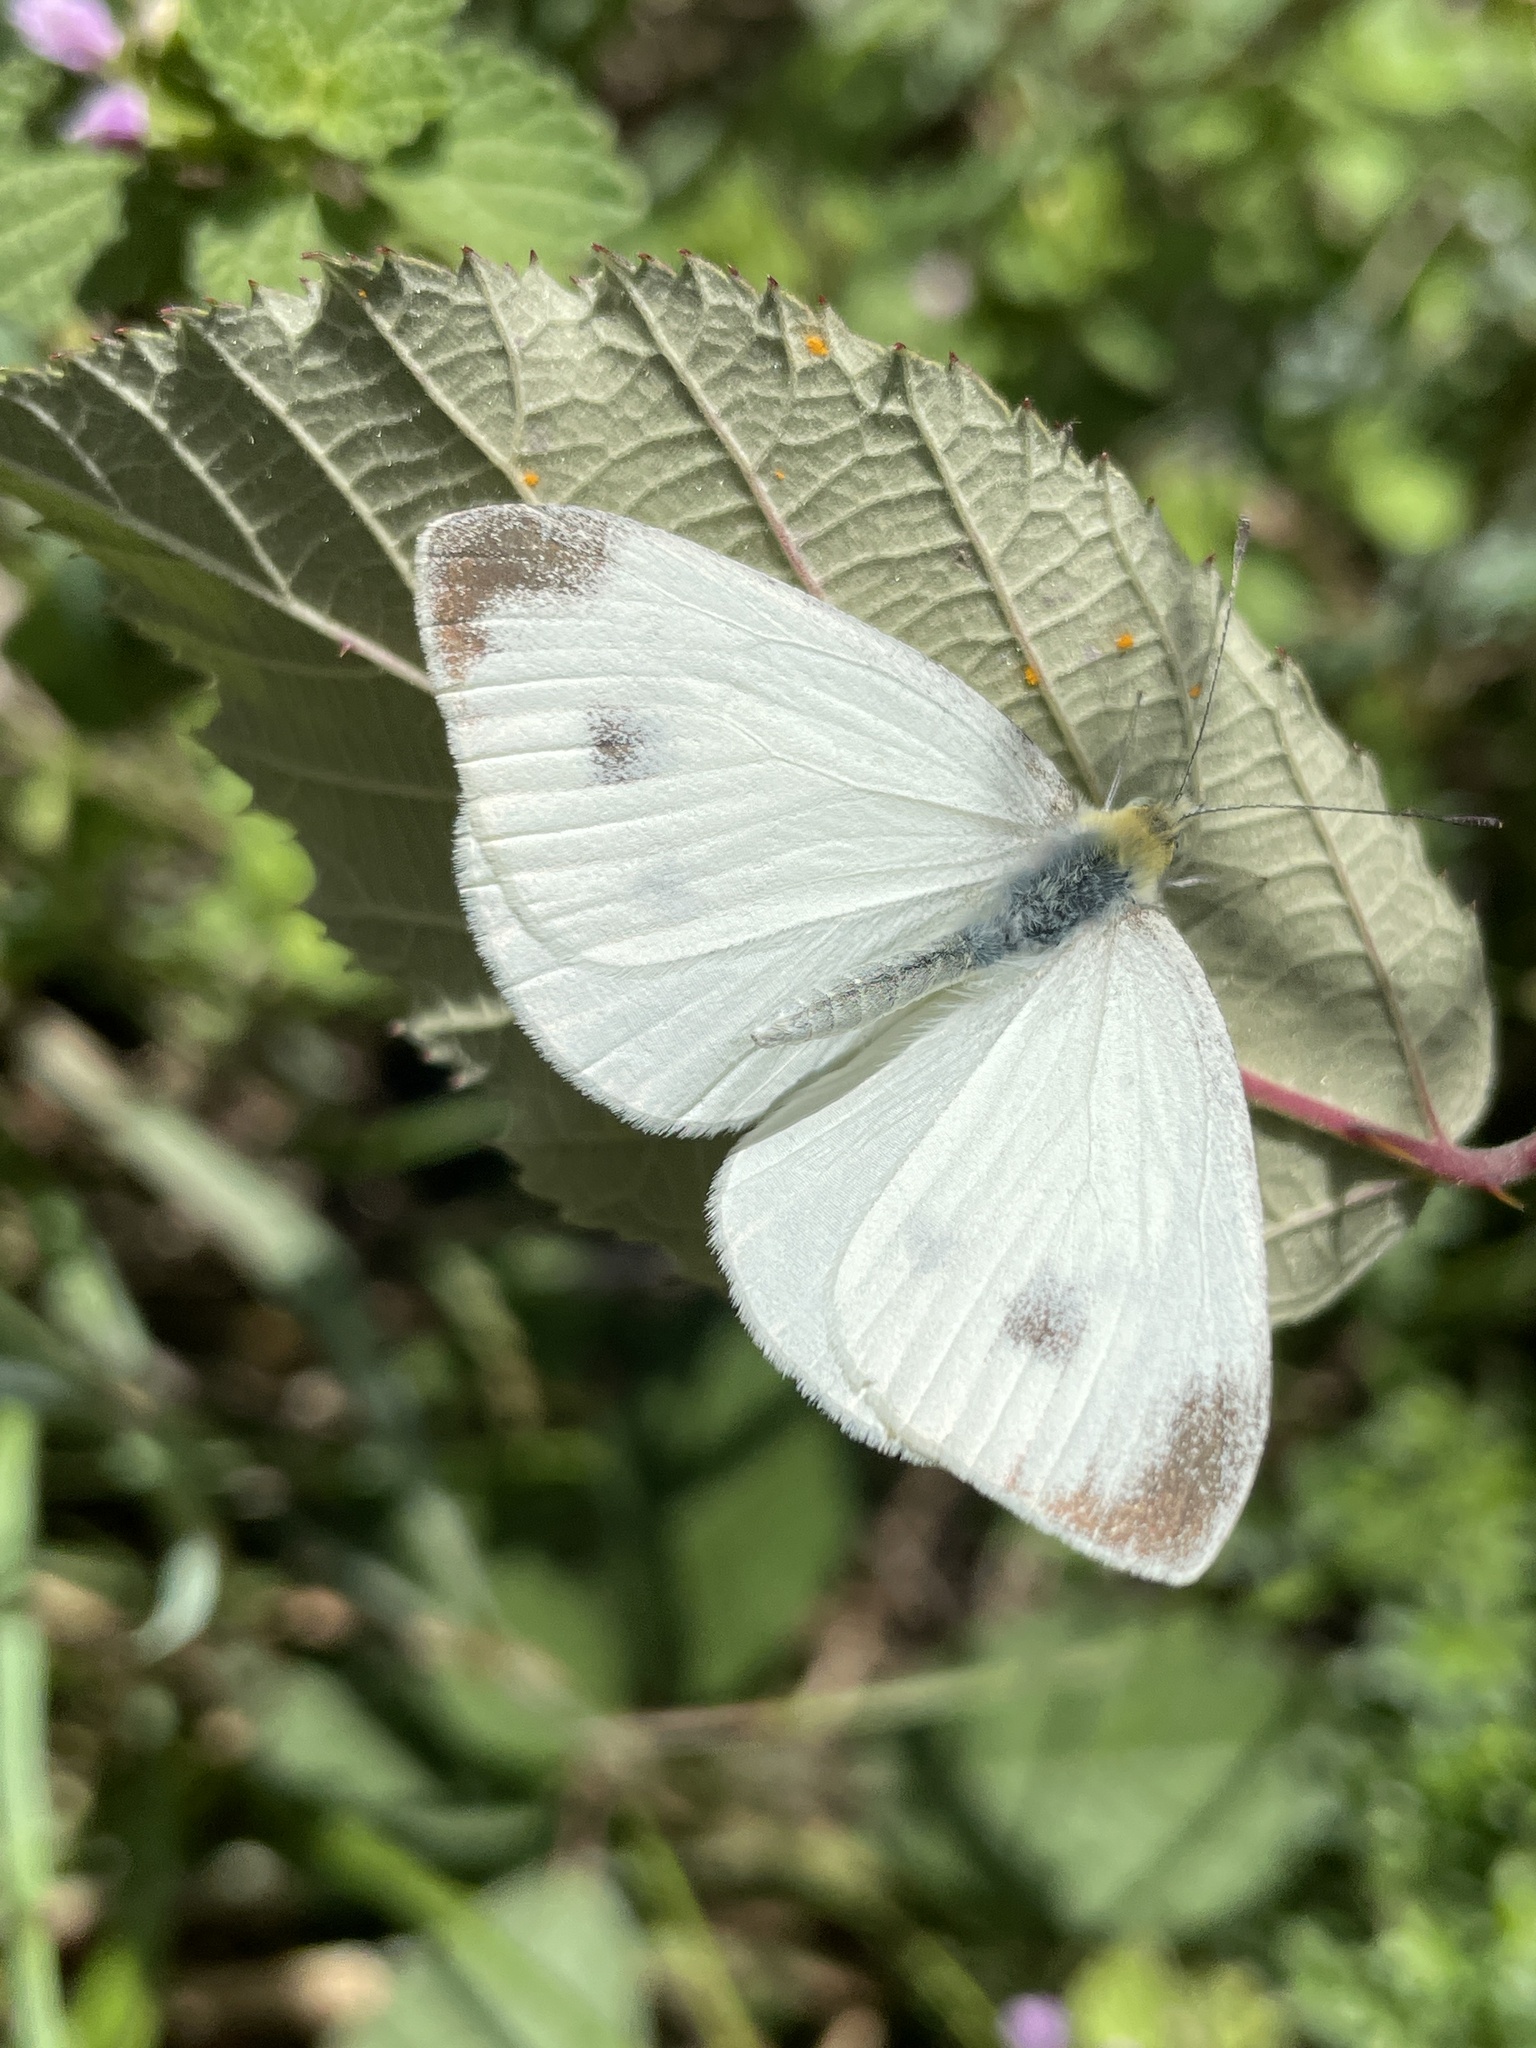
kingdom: Animalia
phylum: Arthropoda
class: Insecta
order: Lepidoptera
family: Pieridae
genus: Pieris
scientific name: Pieris mannii
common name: Southern small white
